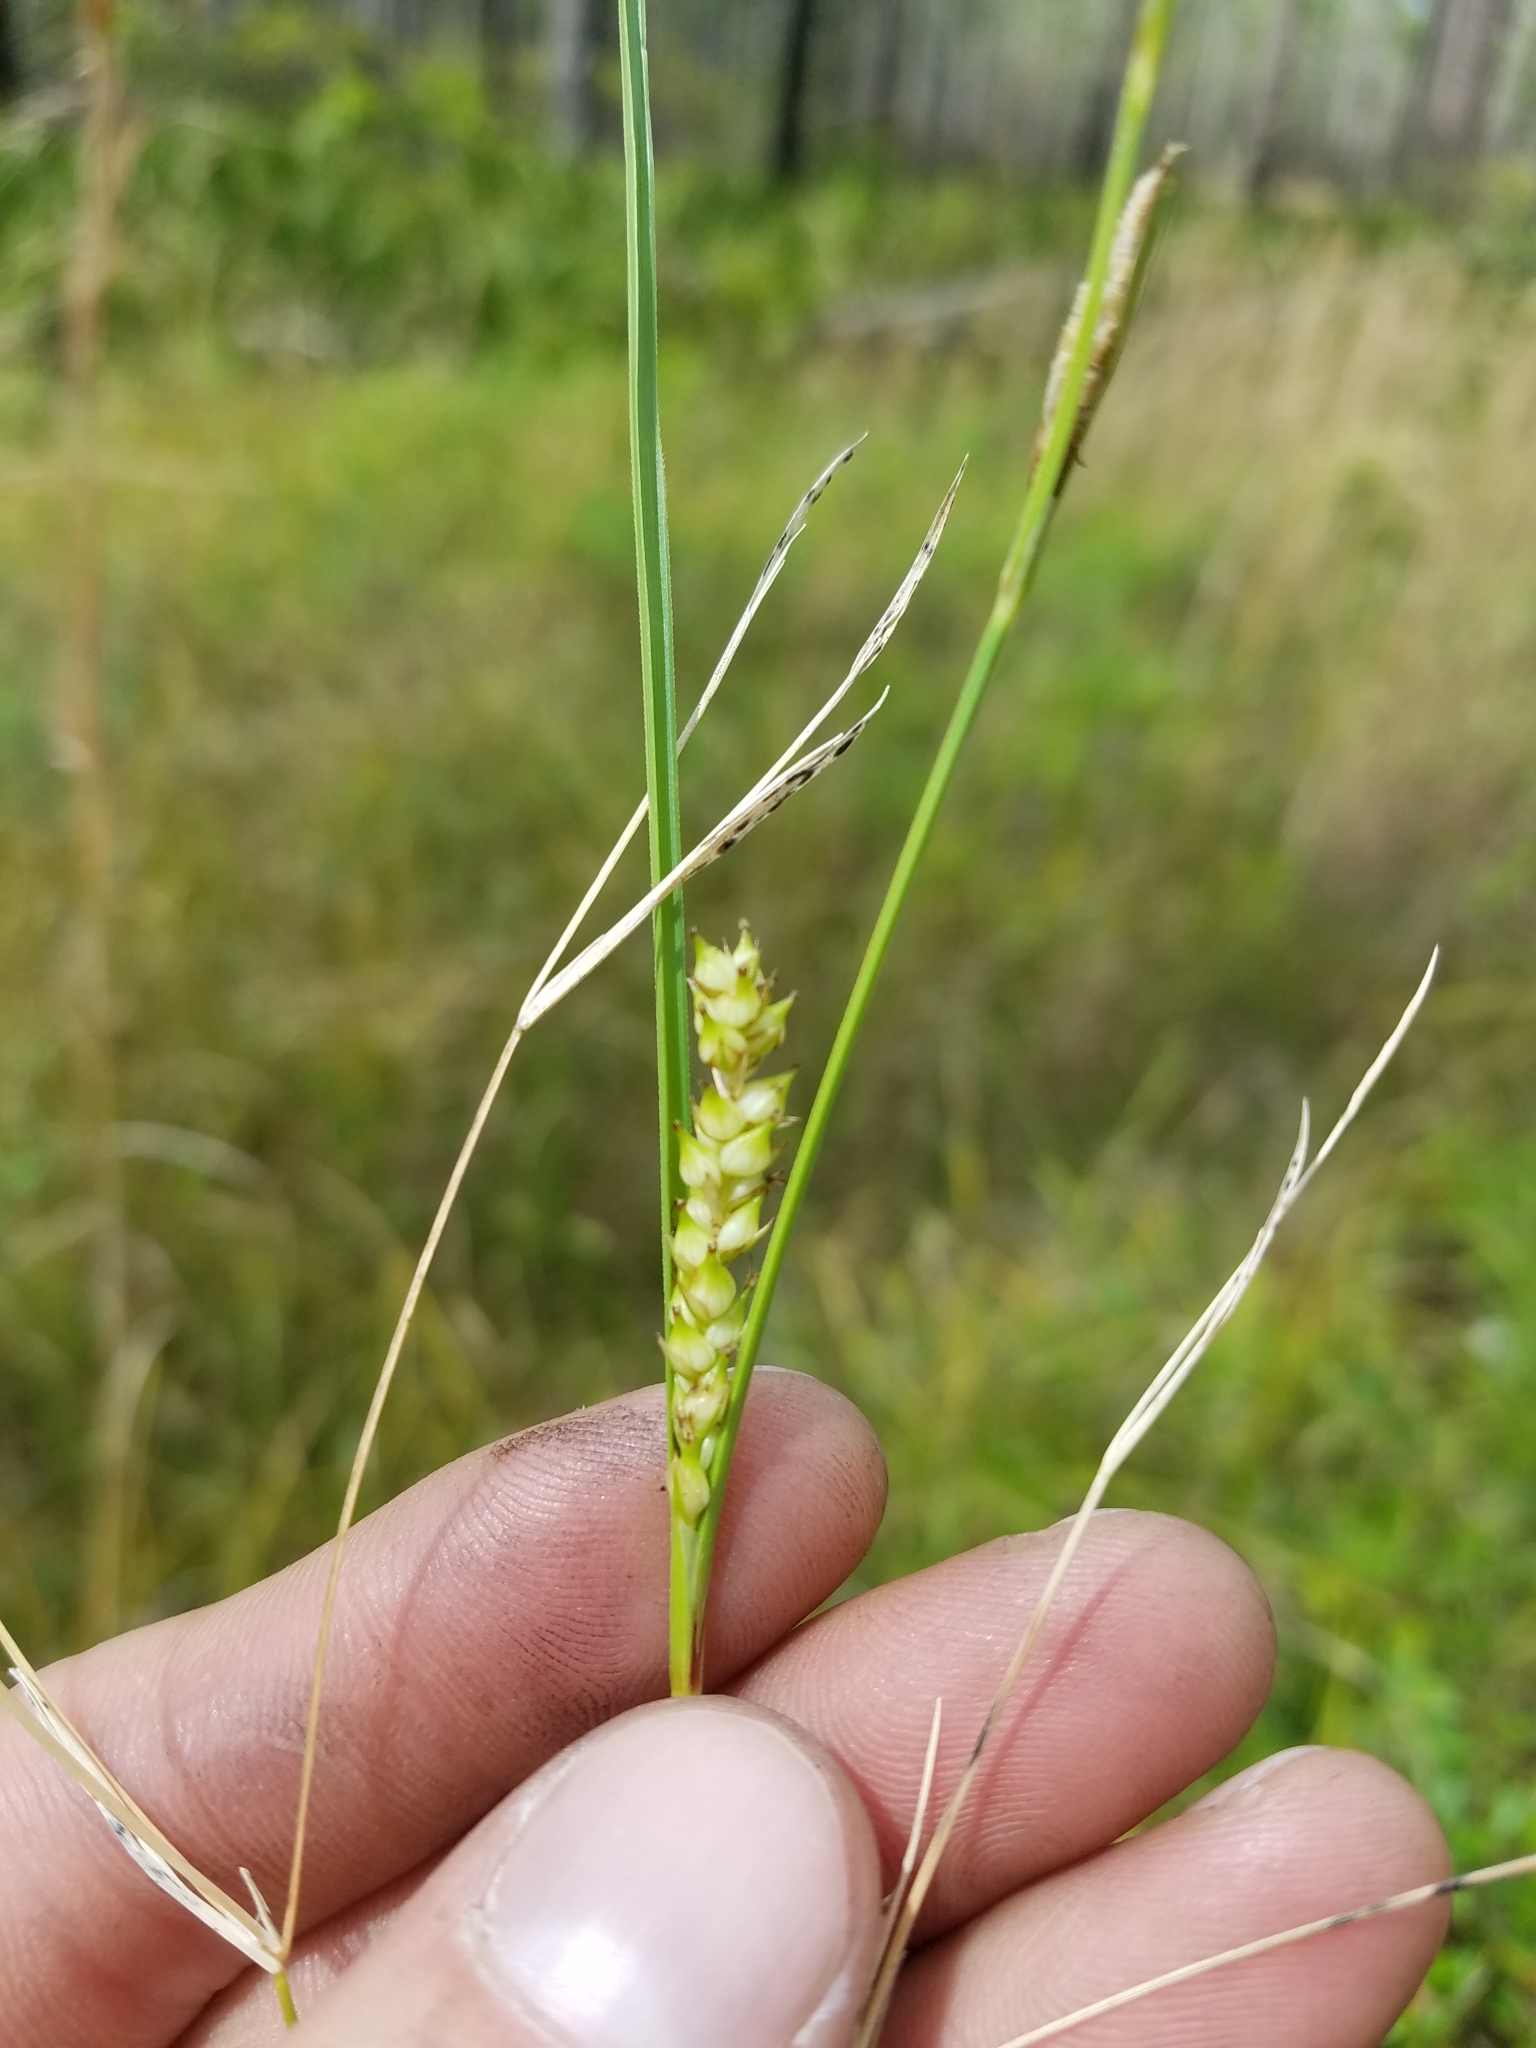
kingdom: Plantae
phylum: Tracheophyta
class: Liliopsida
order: Poales
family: Cyperaceae
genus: Carex
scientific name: Carex striata
